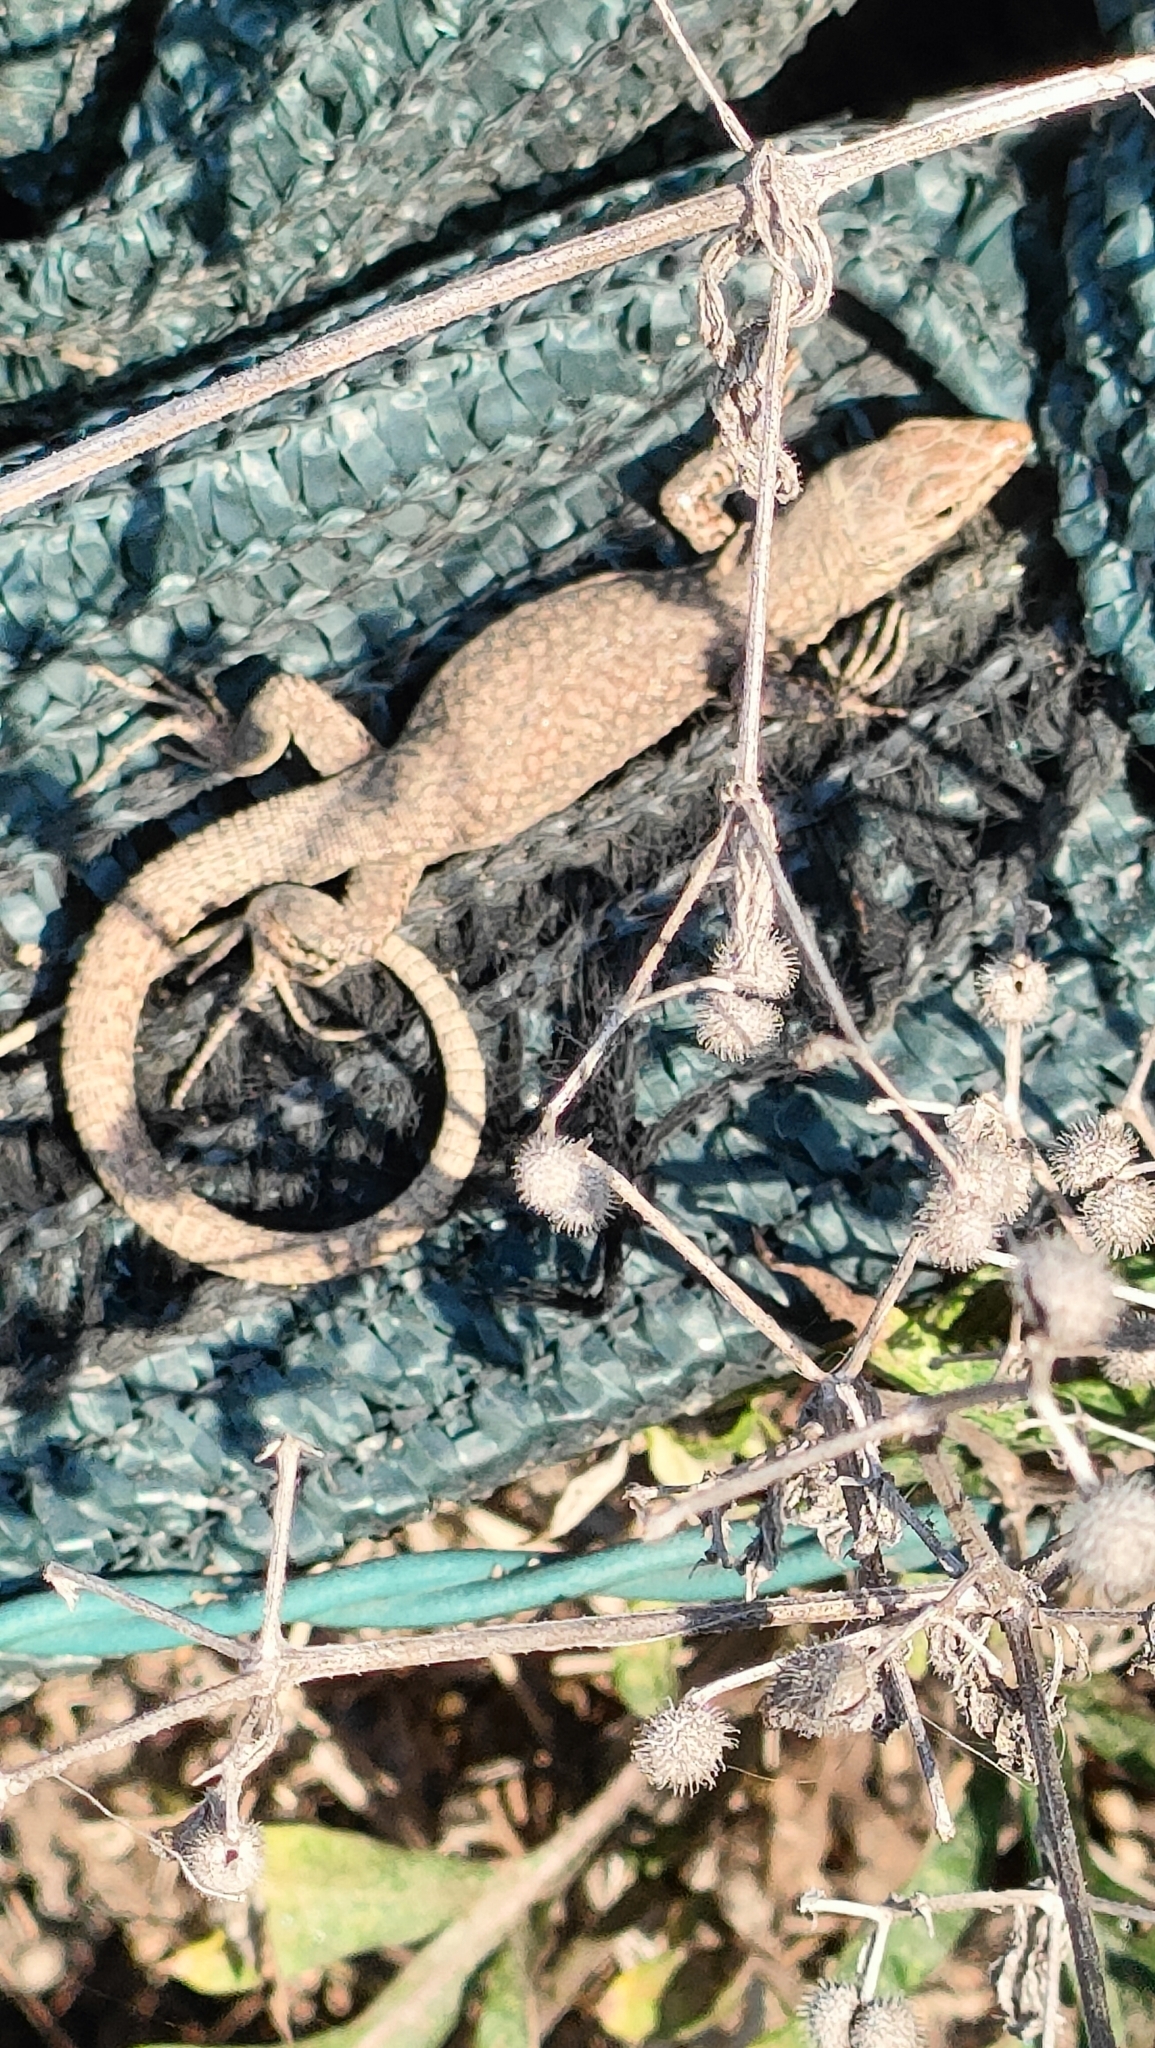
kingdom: Animalia
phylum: Chordata
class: Squamata
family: Lacertidae
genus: Podarcis
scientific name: Podarcis muralis
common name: Common wall lizard
